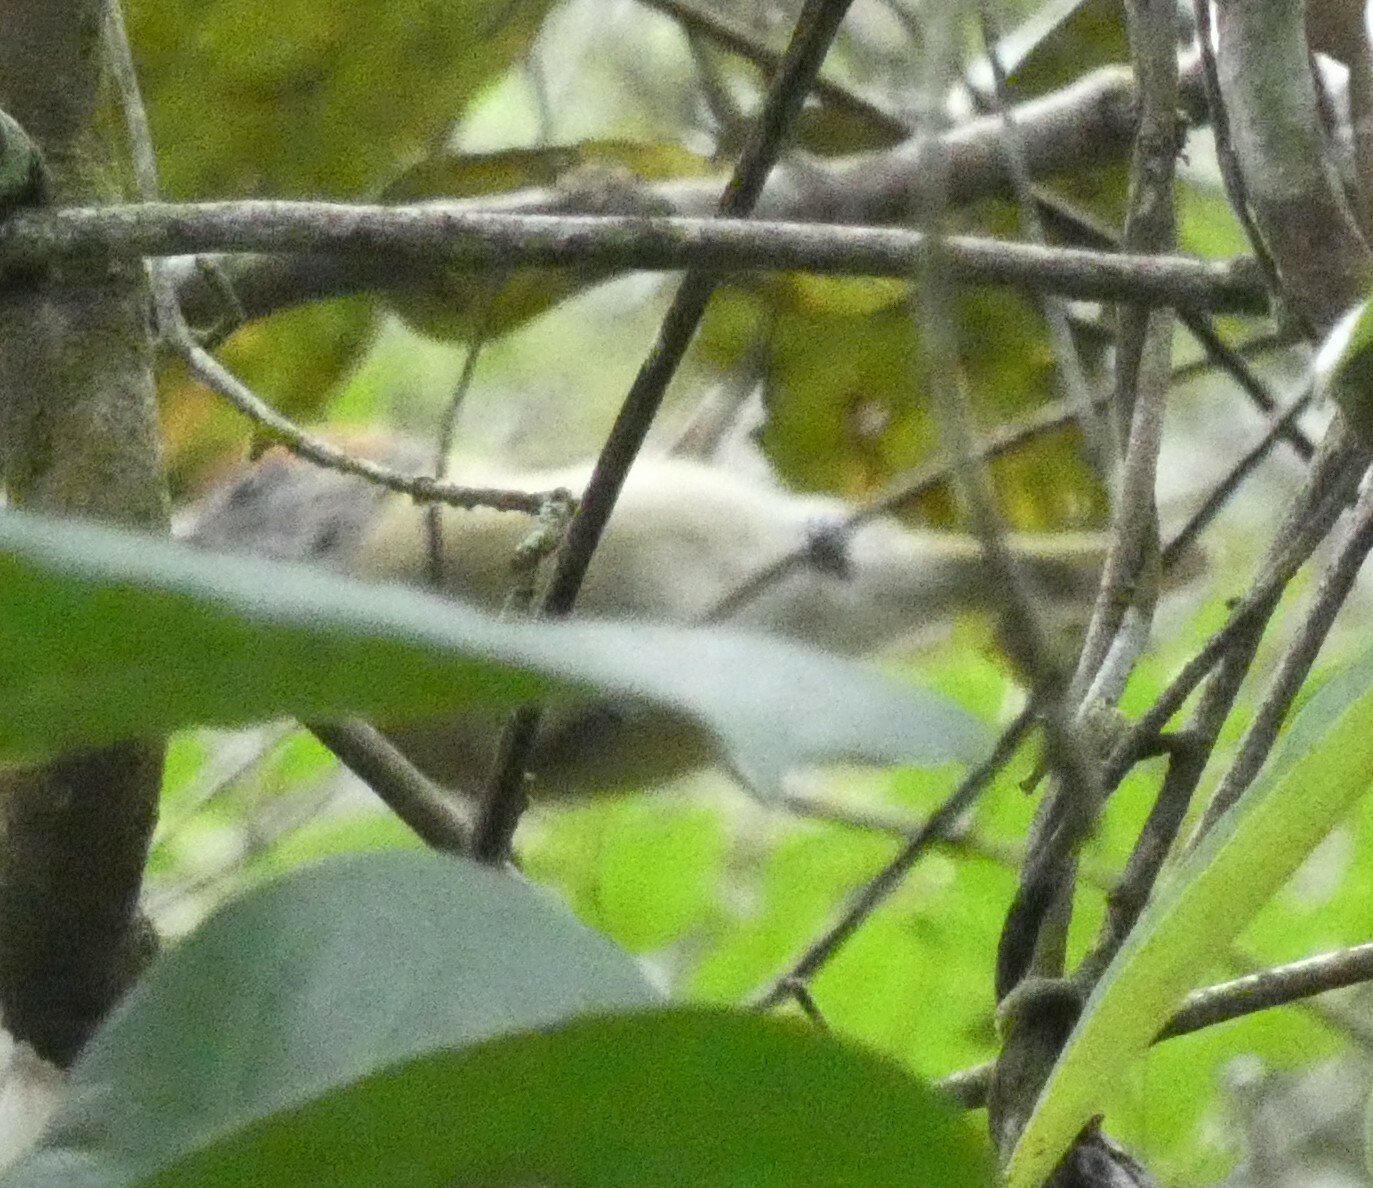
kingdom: Animalia
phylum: Chordata
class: Aves
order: Passeriformes
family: Vireonidae
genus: Hylophilus
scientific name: Hylophilus amaurocephalus
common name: Grey-eyed greenlet
